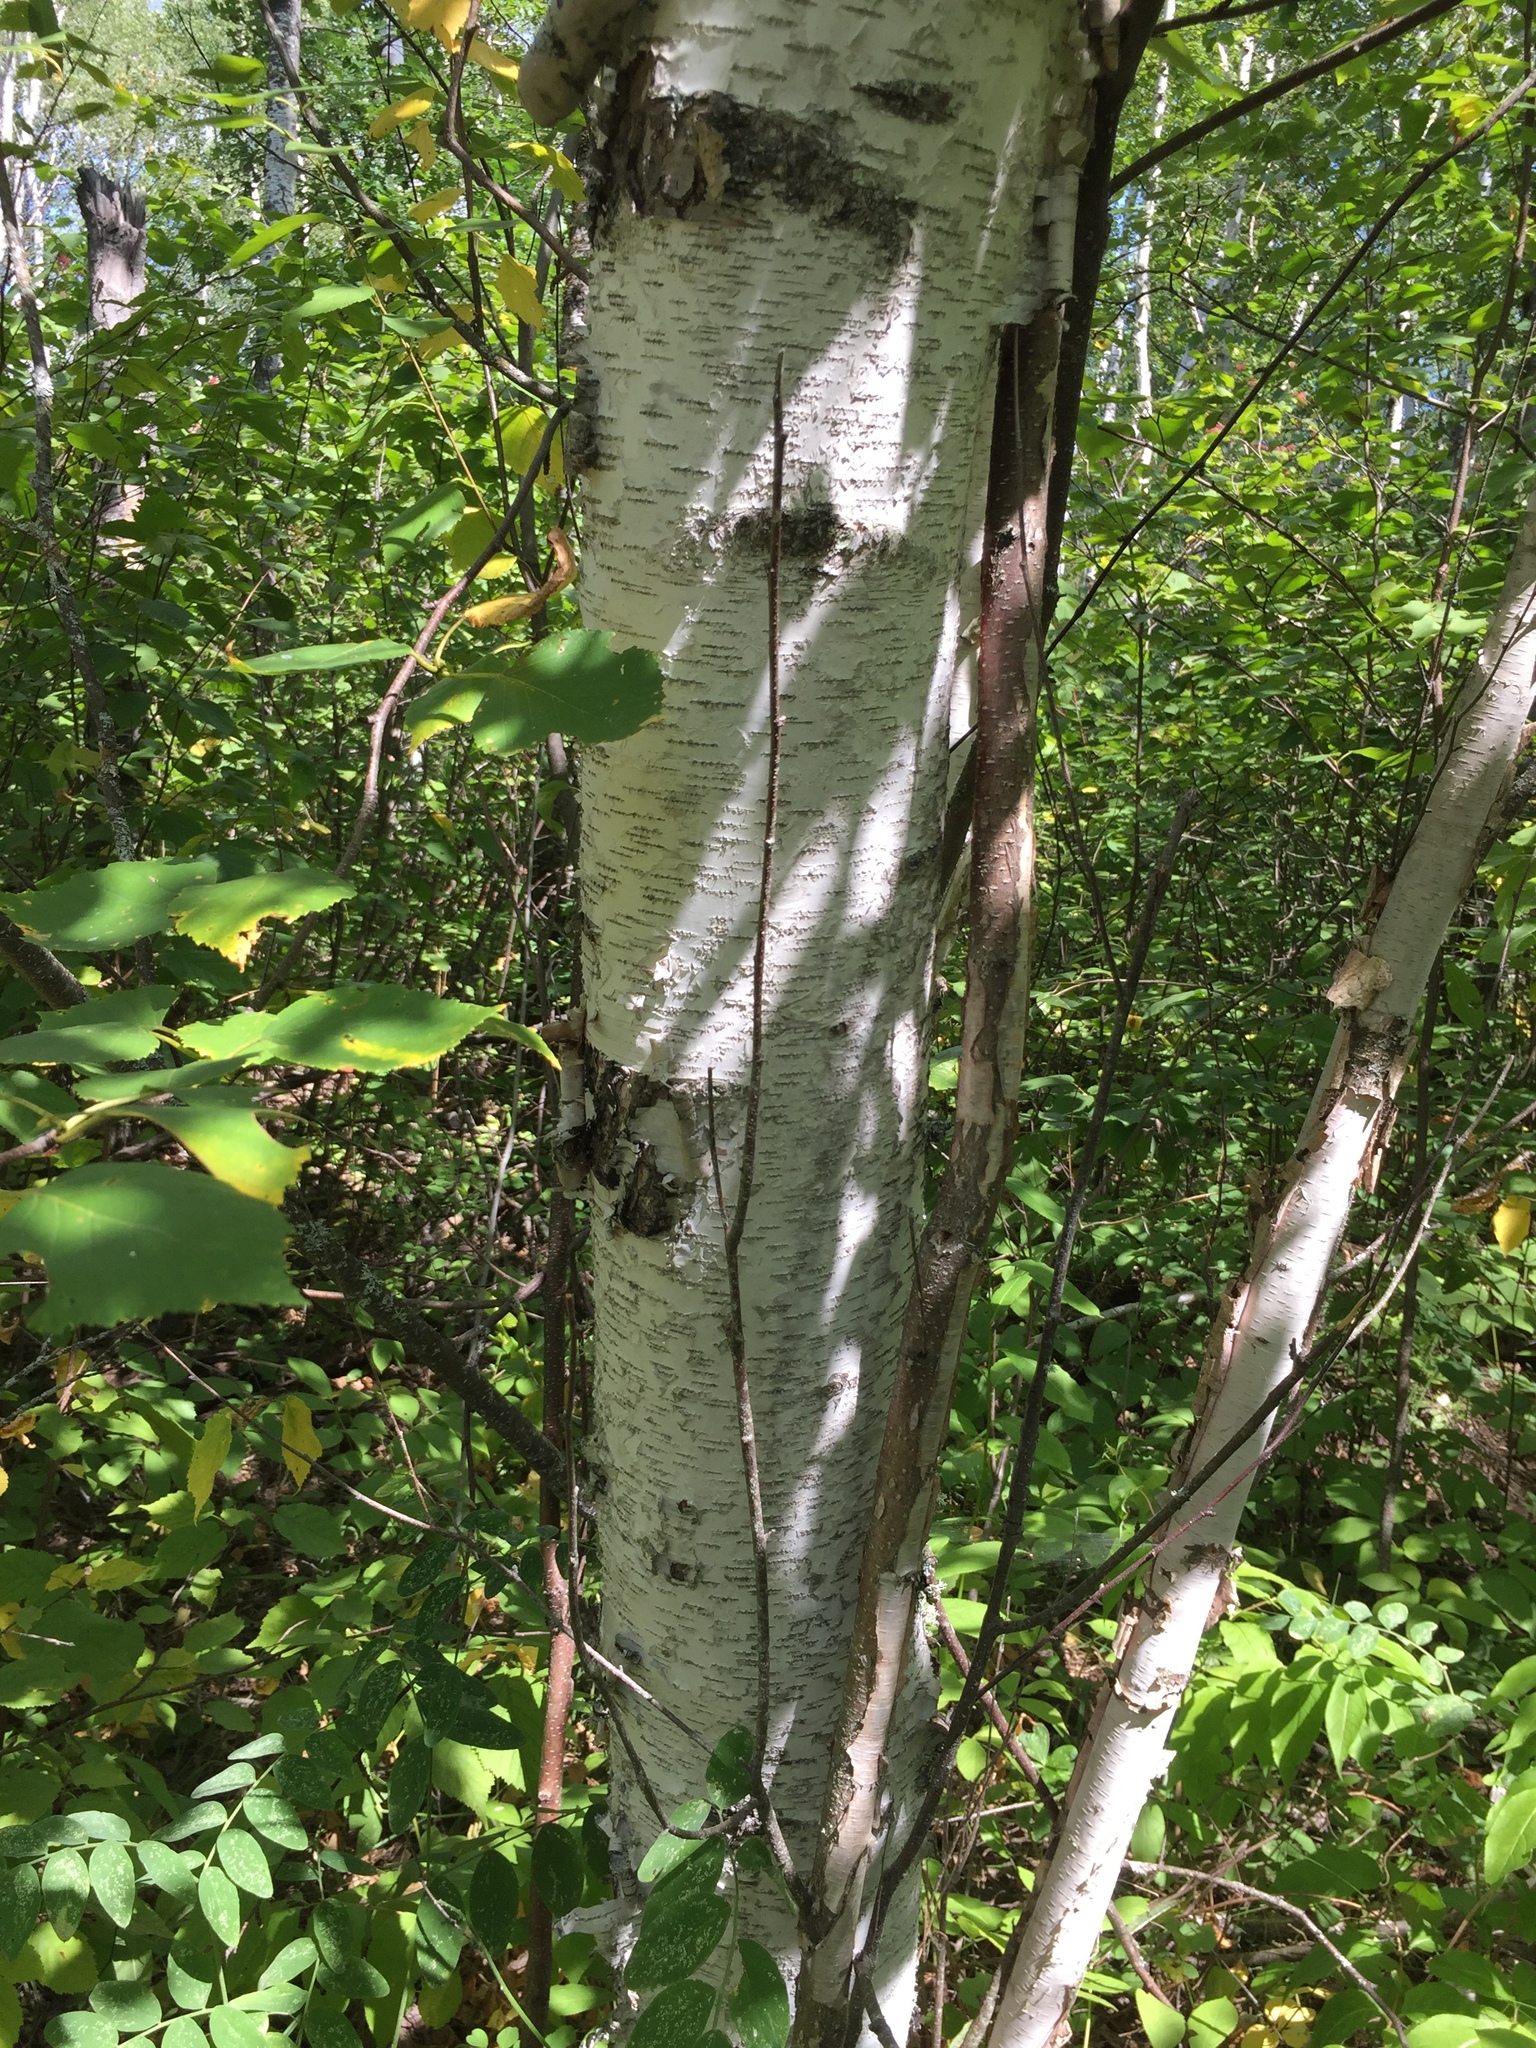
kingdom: Plantae
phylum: Tracheophyta
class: Magnoliopsida
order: Fagales
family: Betulaceae
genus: Betula
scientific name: Betula papyrifera
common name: Paper birch
